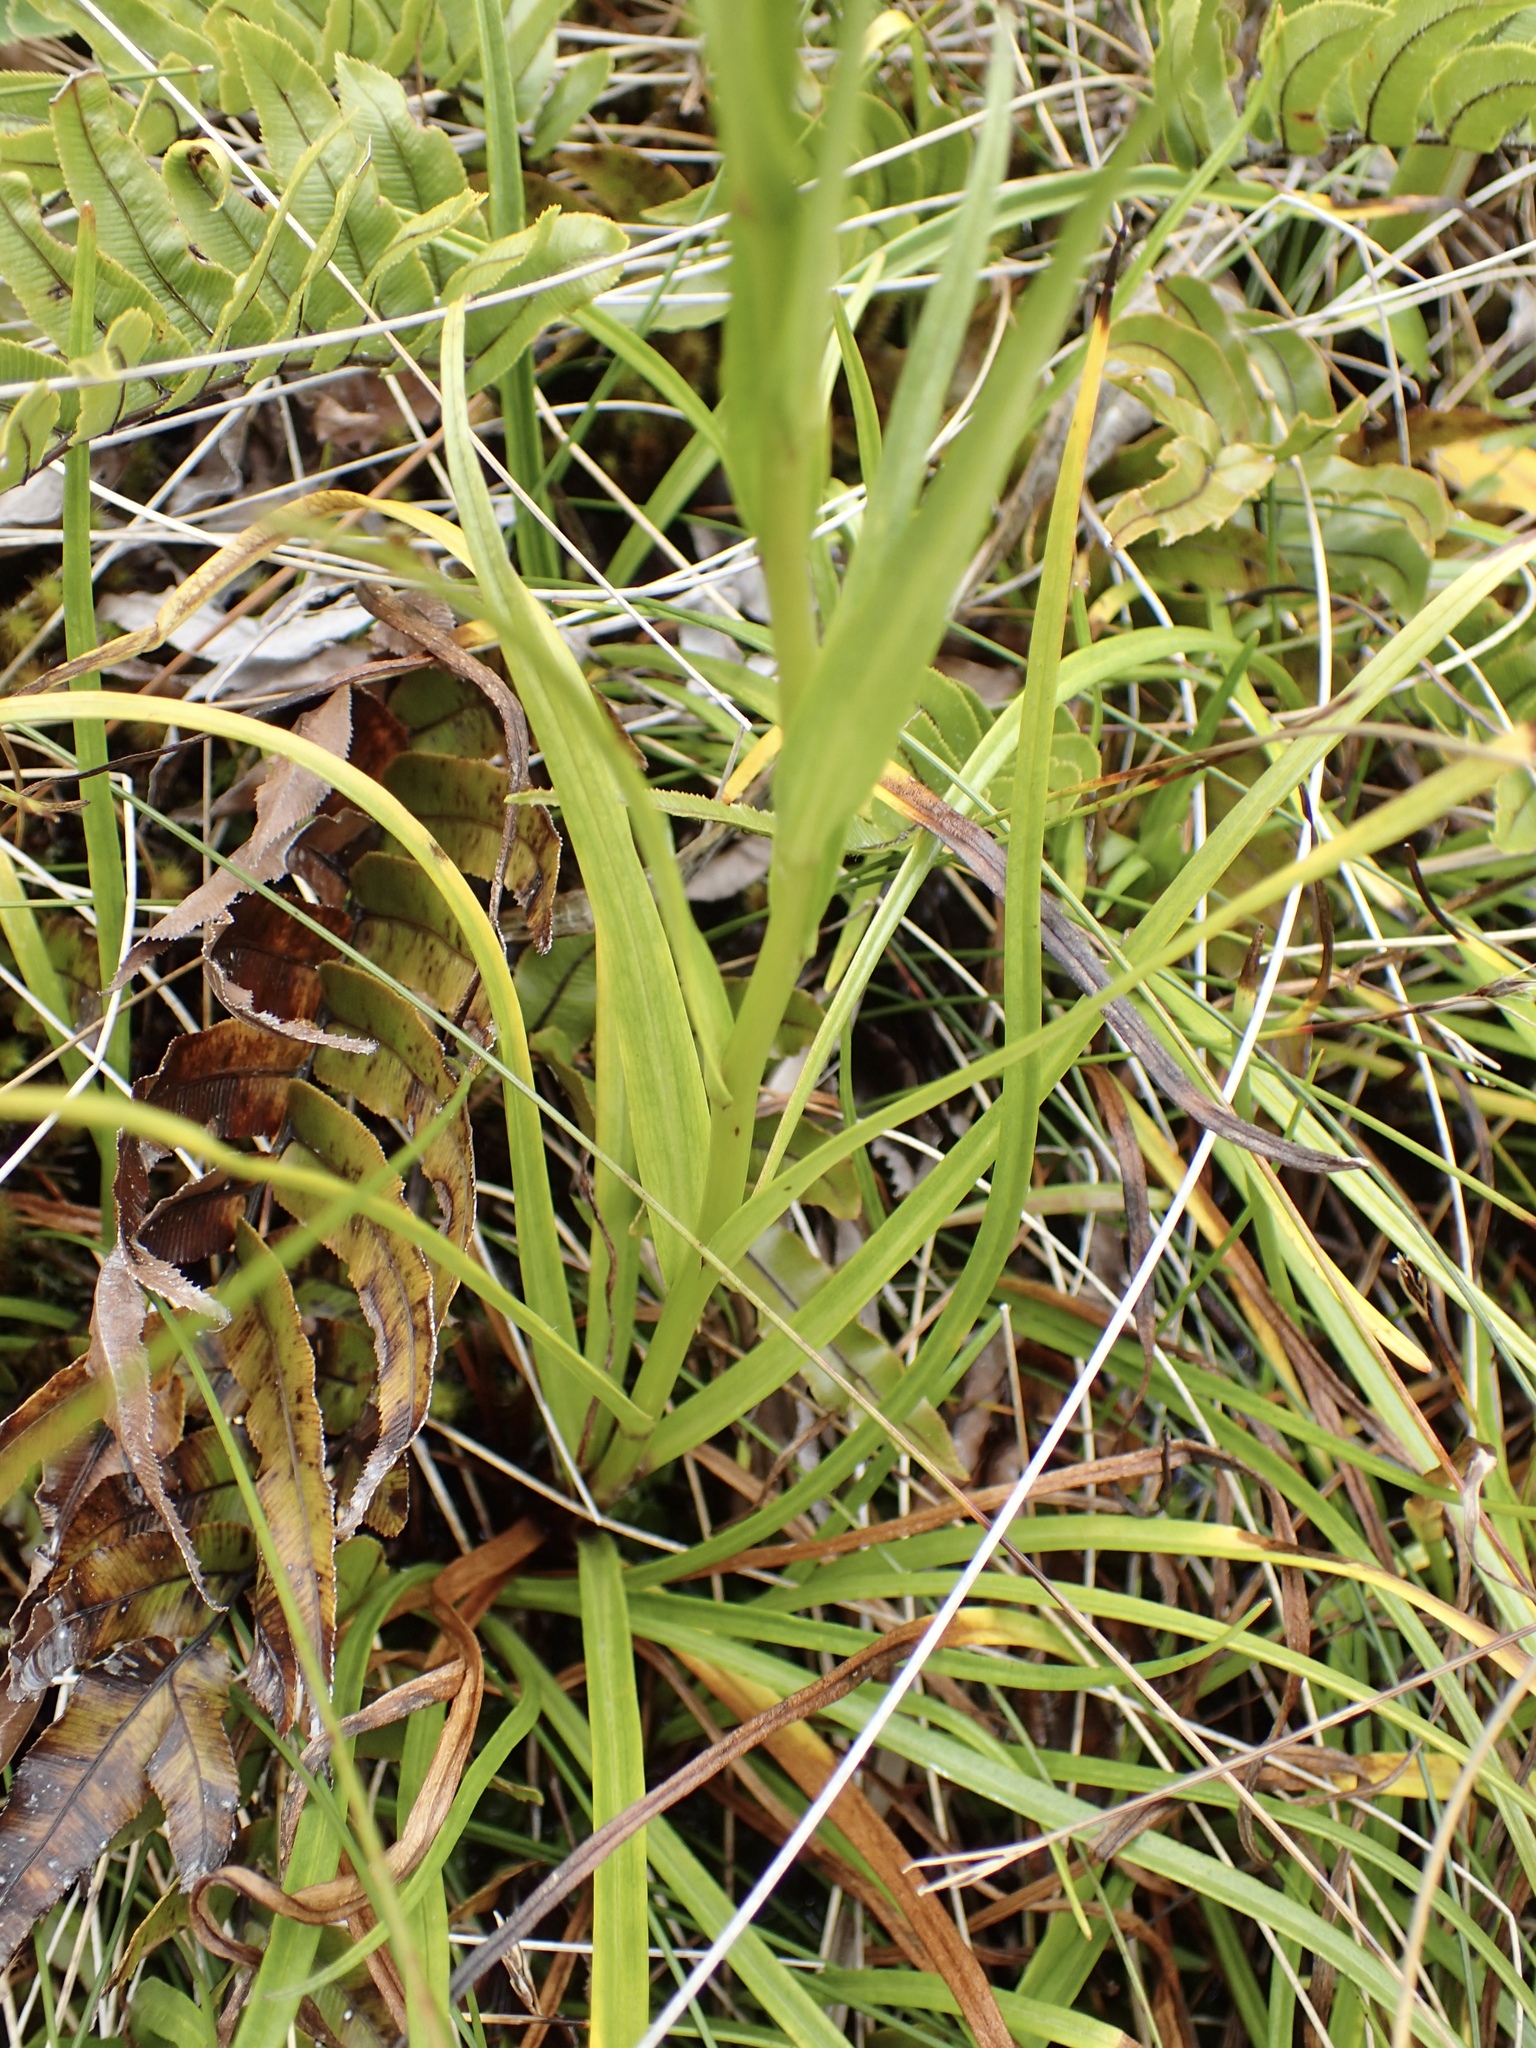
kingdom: Plantae
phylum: Tracheophyta
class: Magnoliopsida
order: Asterales
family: Asteraceae
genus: Dolichoglottis
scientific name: Dolichoglottis lyallii
